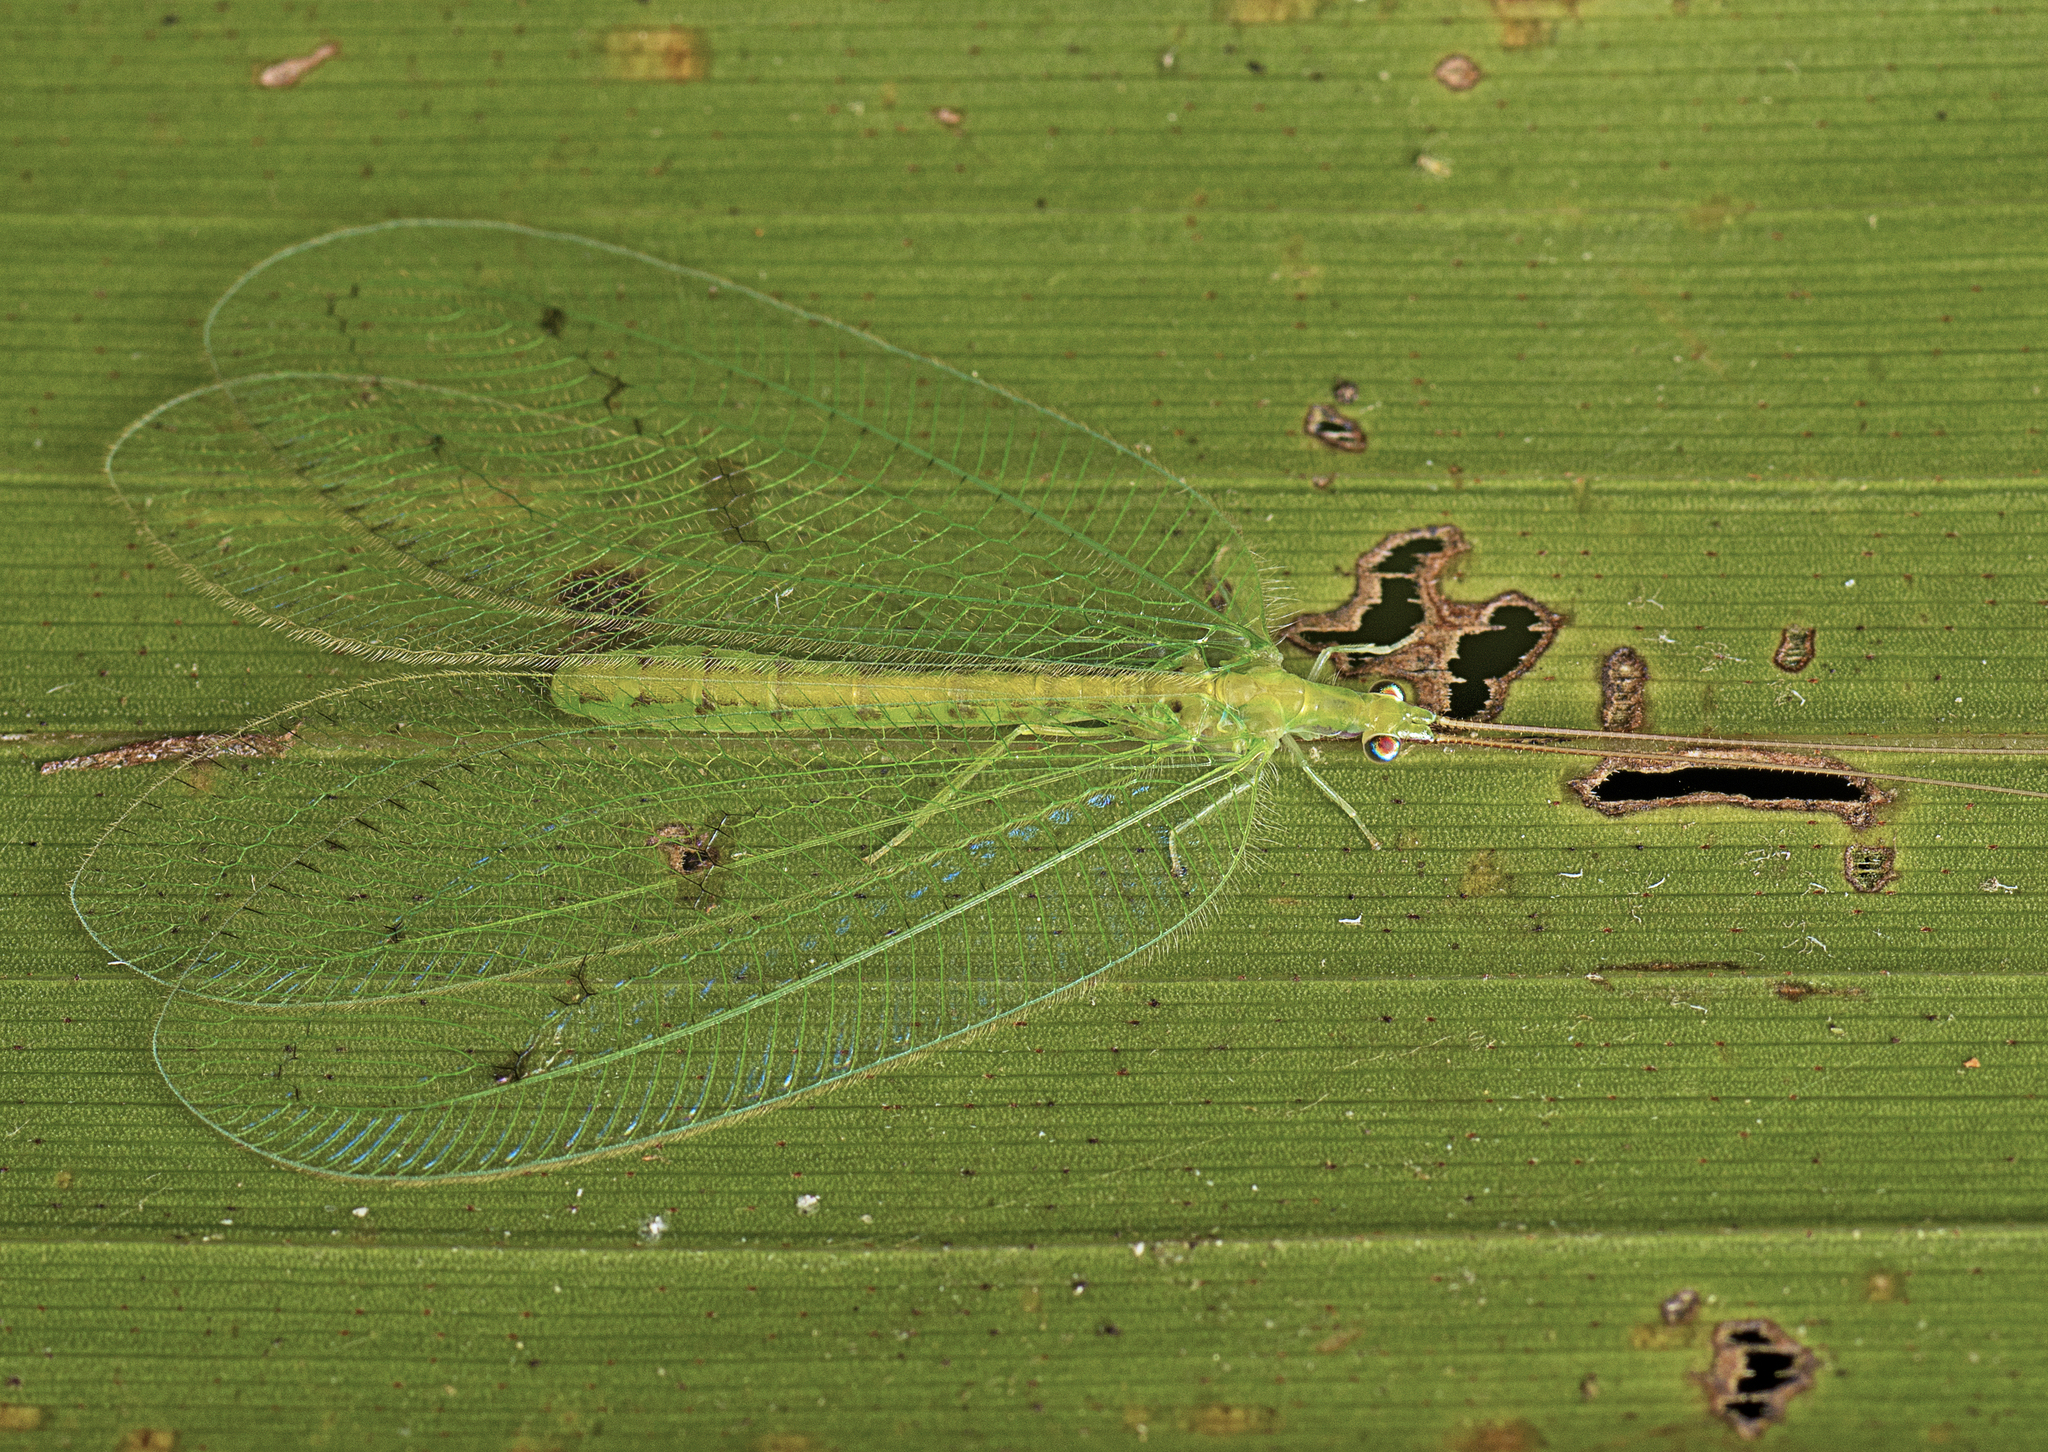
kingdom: Animalia
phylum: Arthropoda
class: Insecta
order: Neuroptera
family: Chrysopidae
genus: Apochrysa
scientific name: Apochrysa lutea
